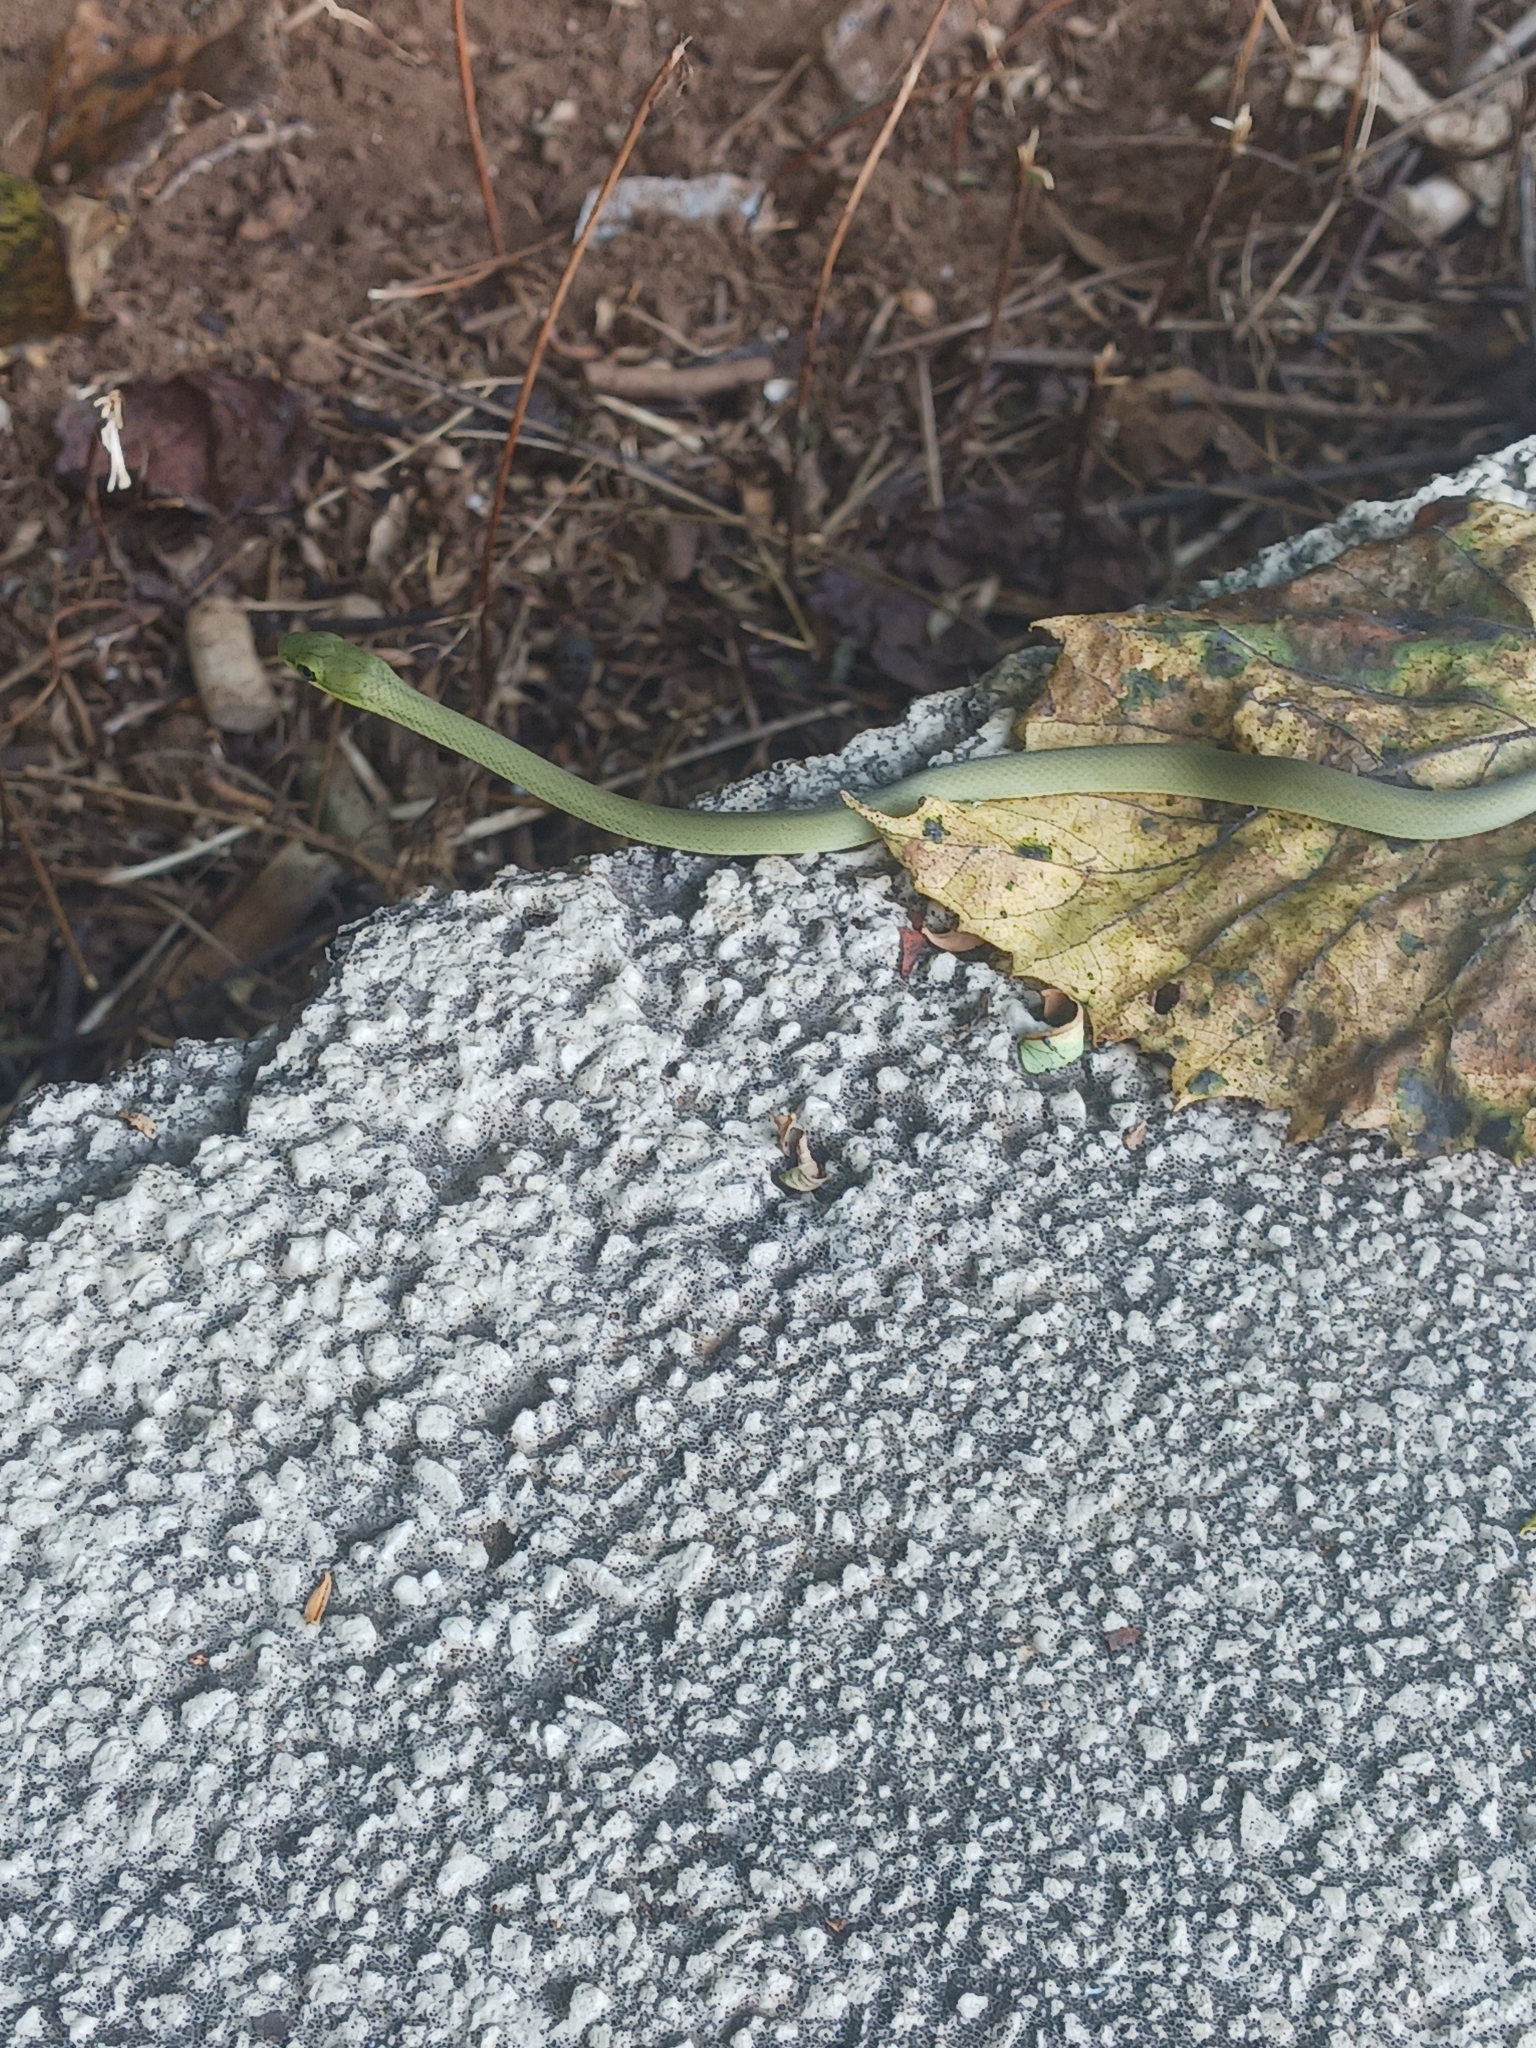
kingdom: Animalia
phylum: Chordata
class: Squamata
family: Colubridae
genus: Opheodrys
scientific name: Opheodrys aestivus
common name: Rough greensnake
